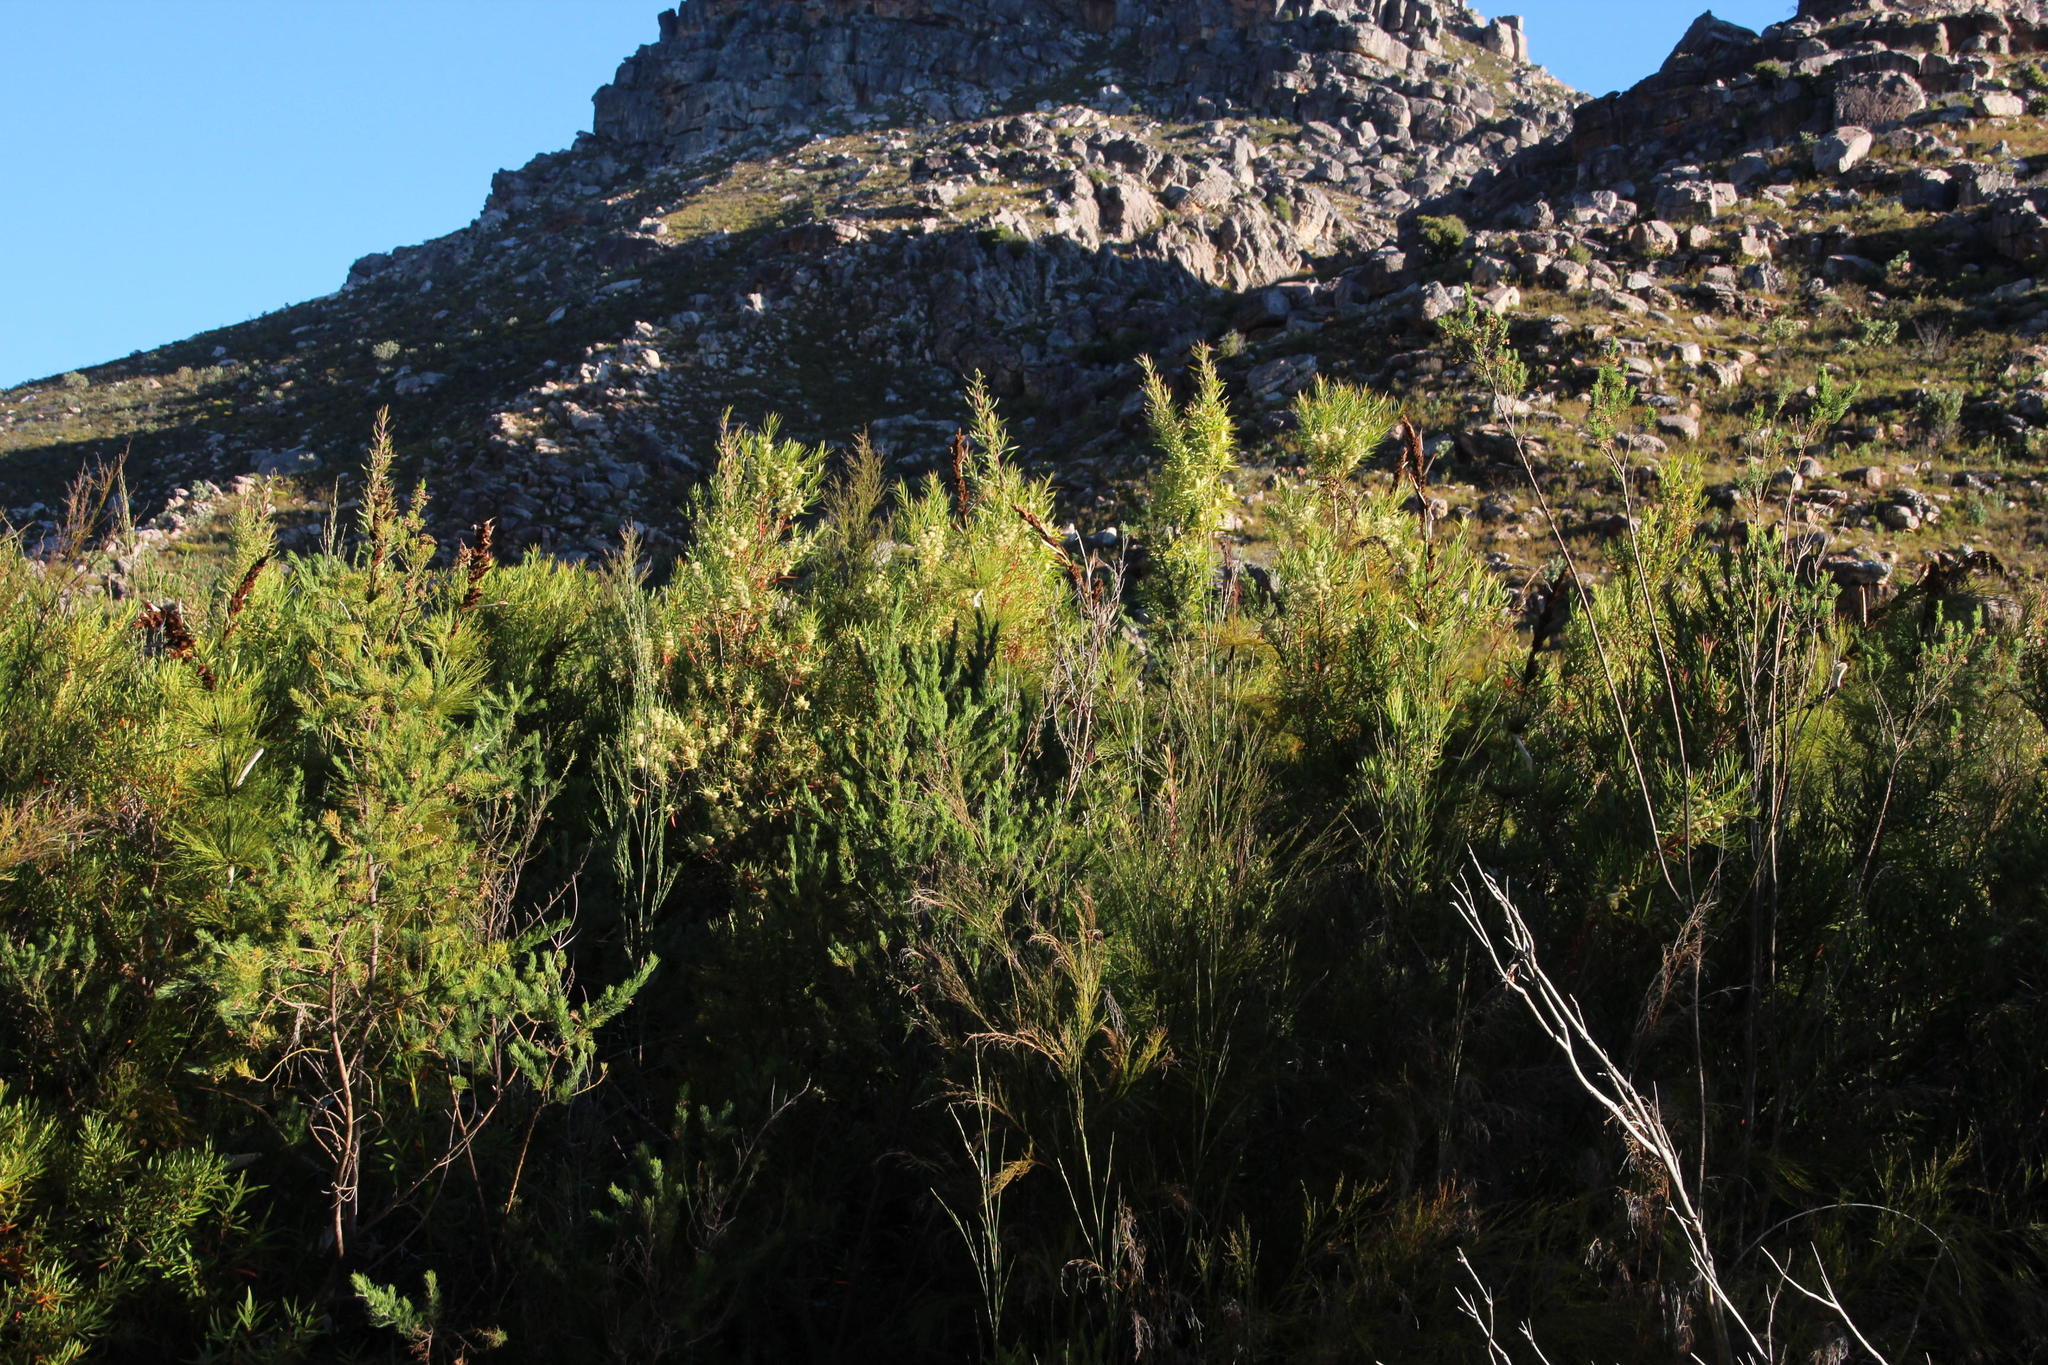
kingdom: Plantae
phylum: Tracheophyta
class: Magnoliopsida
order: Proteales
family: Proteaceae
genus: Leucadendron
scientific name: Leucadendron salicifolium
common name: Common stream conebush
